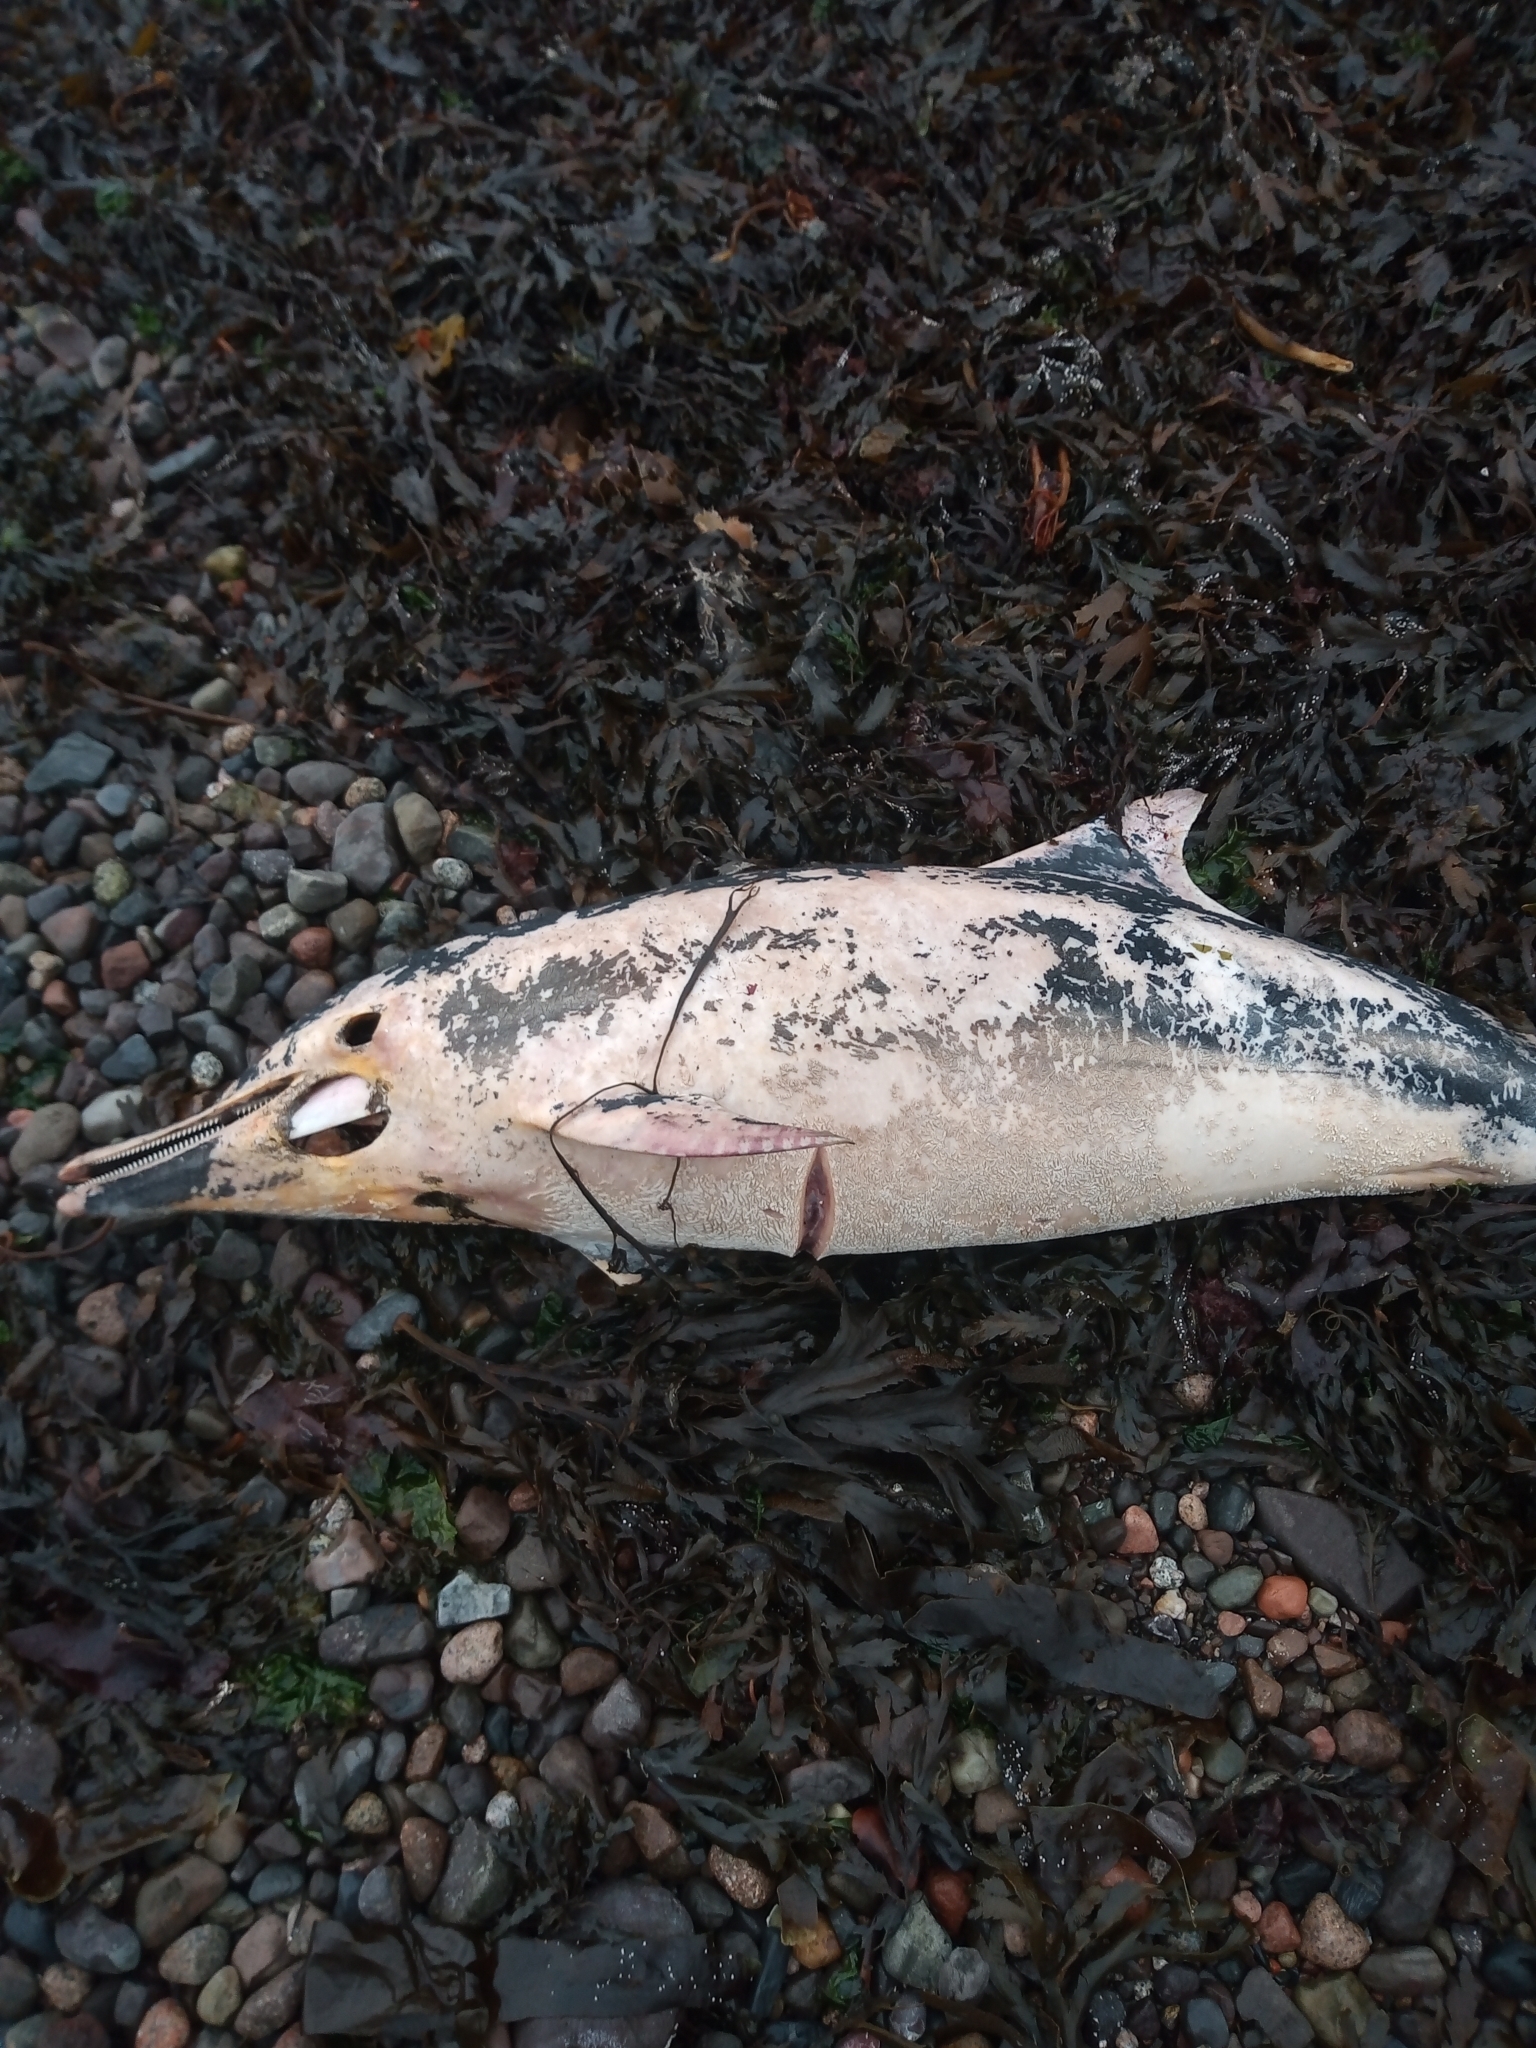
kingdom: Animalia
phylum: Chordata
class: Mammalia
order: Cetacea
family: Delphinidae
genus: Delphinus
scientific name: Delphinus delphis
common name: Common dolphin
